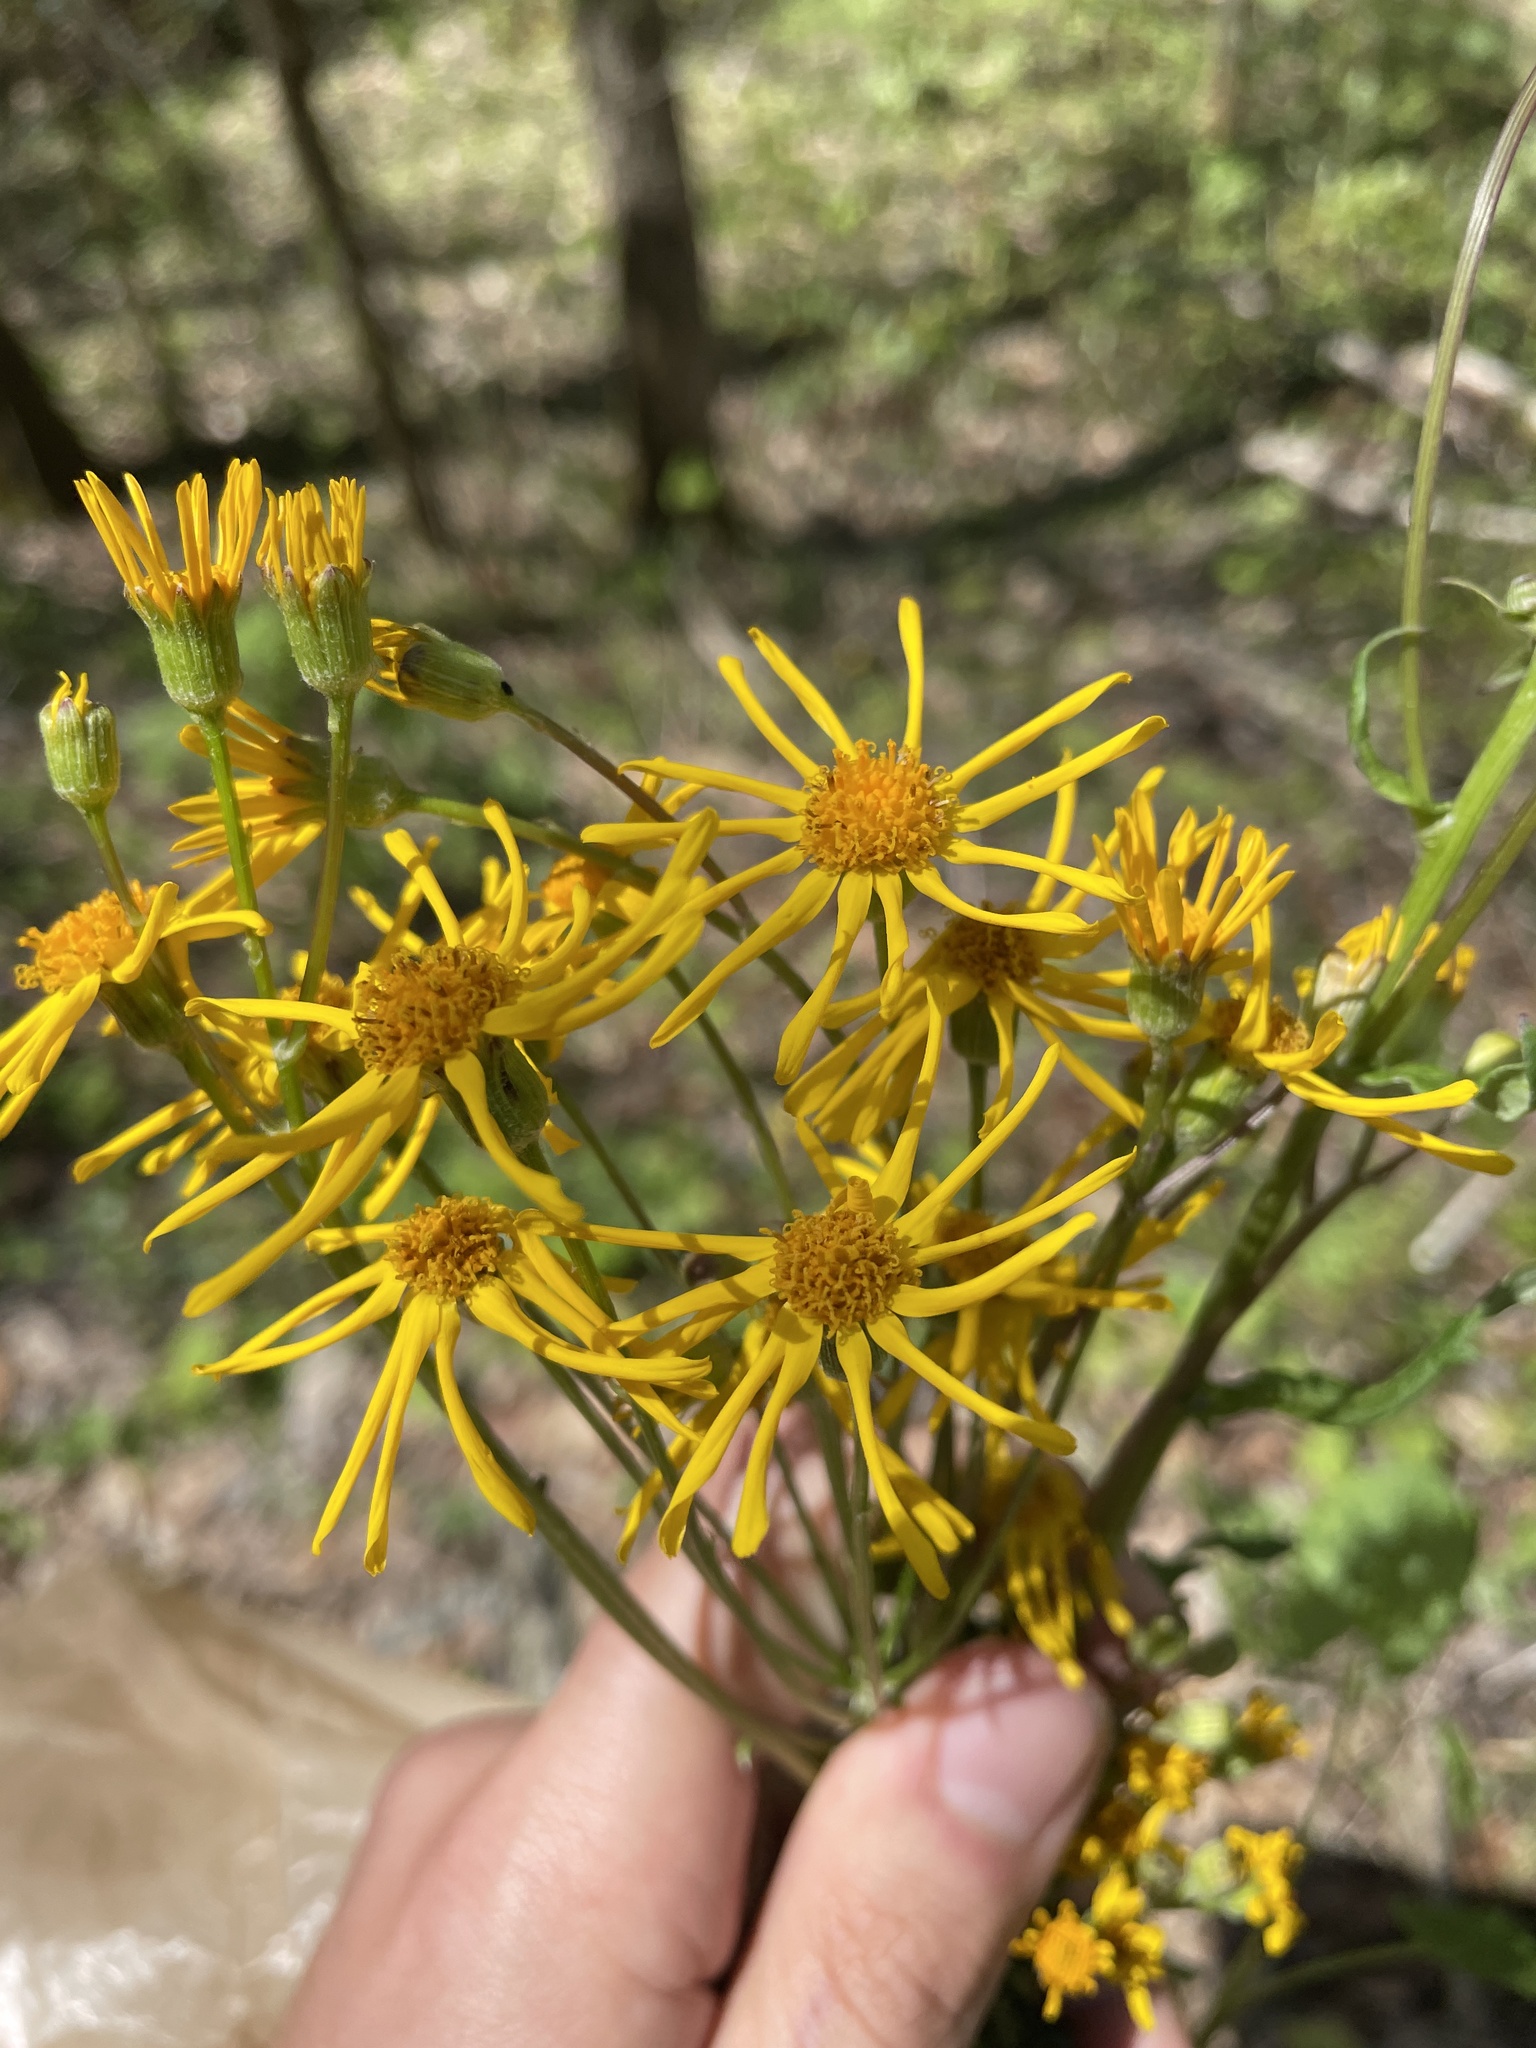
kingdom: Plantae
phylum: Tracheophyta
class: Magnoliopsida
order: Asterales
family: Asteraceae
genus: Packera
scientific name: Packera aurea
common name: Golden groundsel
